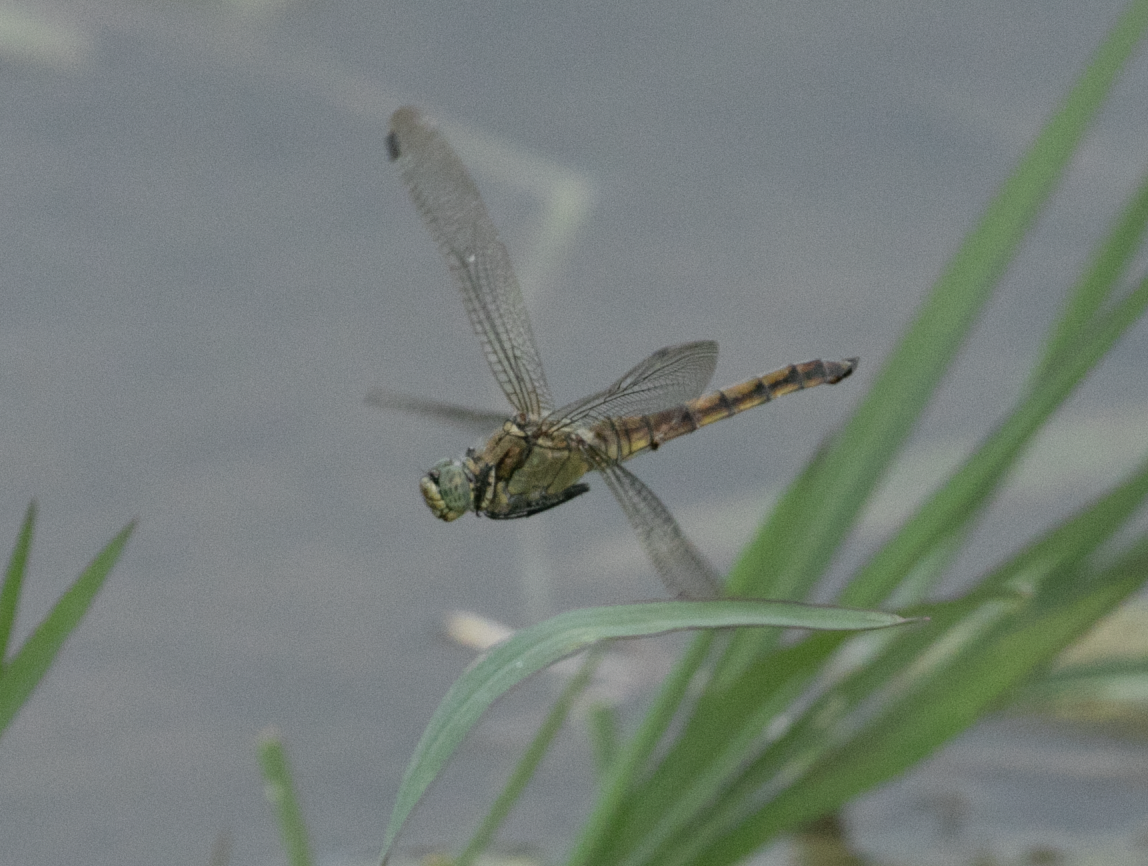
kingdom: Animalia
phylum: Arthropoda
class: Insecta
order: Odonata
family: Libellulidae
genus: Orthetrum
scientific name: Orthetrum cancellatum
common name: Black-tailed skimmer
